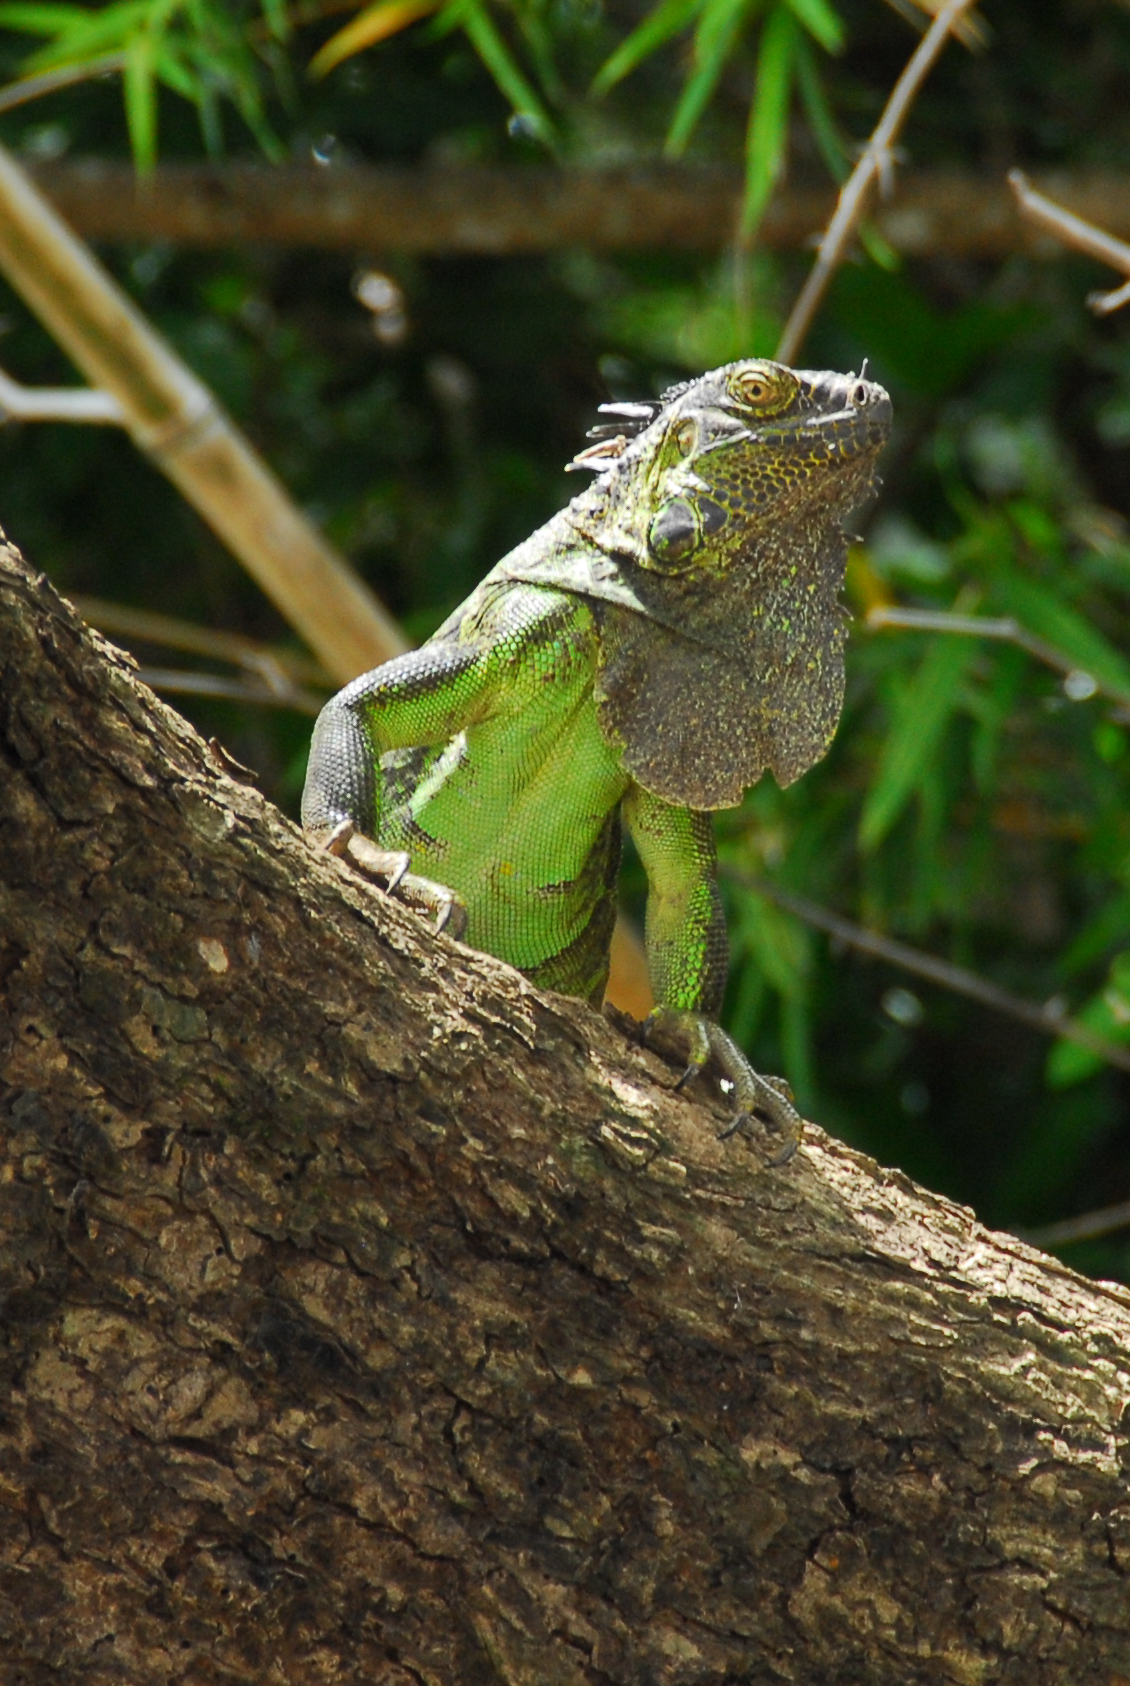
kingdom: Animalia
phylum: Chordata
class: Squamata
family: Iguanidae
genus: Iguana
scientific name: Iguana iguana
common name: Green iguana
